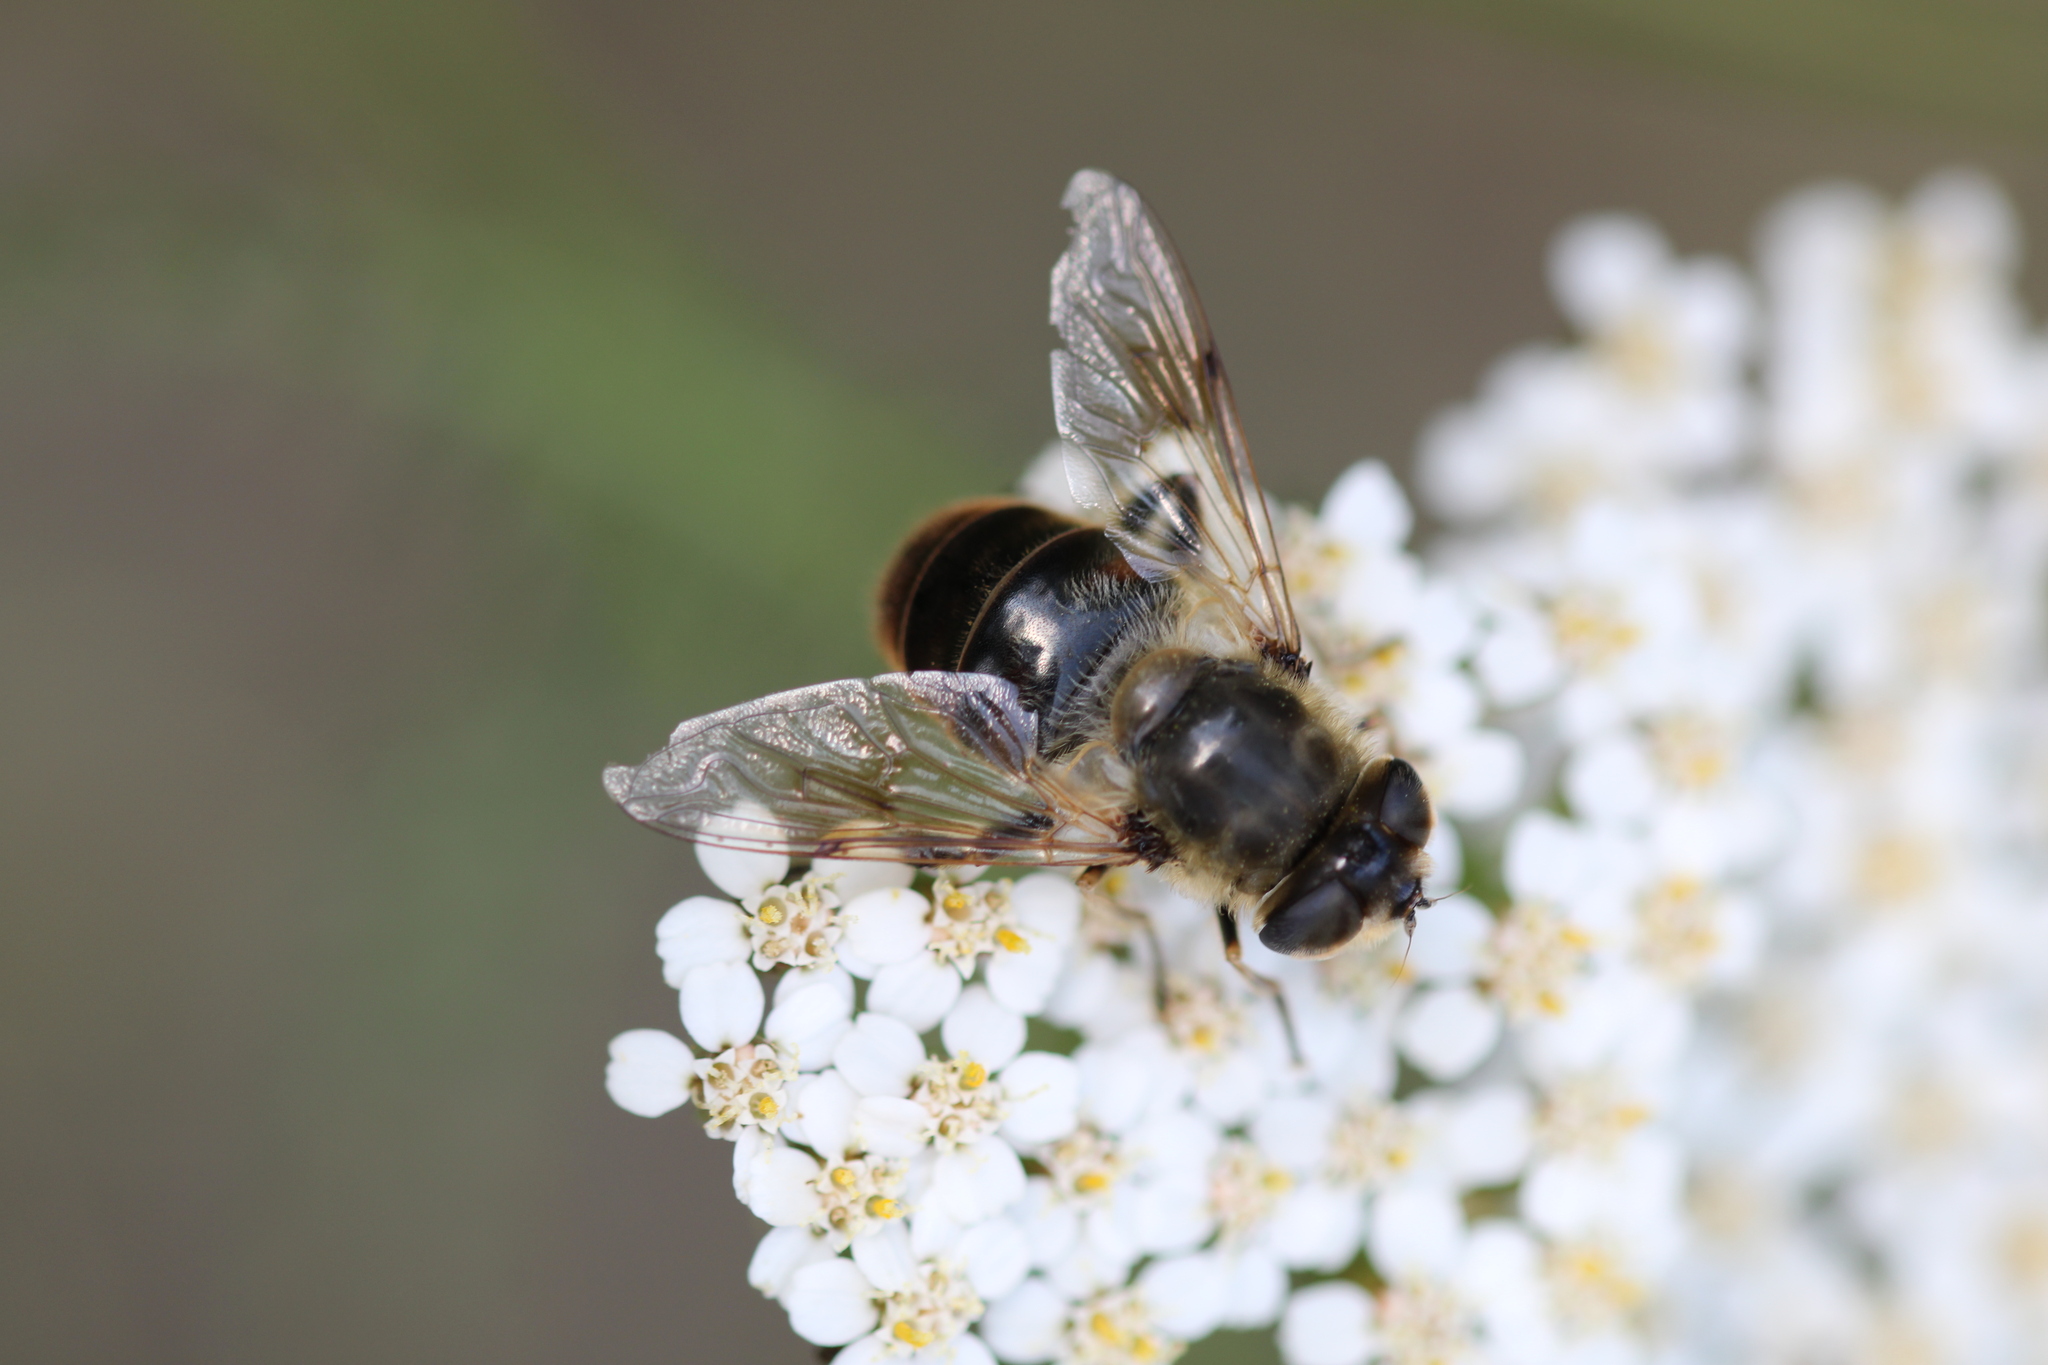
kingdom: Animalia
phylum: Arthropoda
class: Insecta
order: Diptera
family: Syrphidae
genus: Eristalis
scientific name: Eristalis tenax
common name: Drone fly
